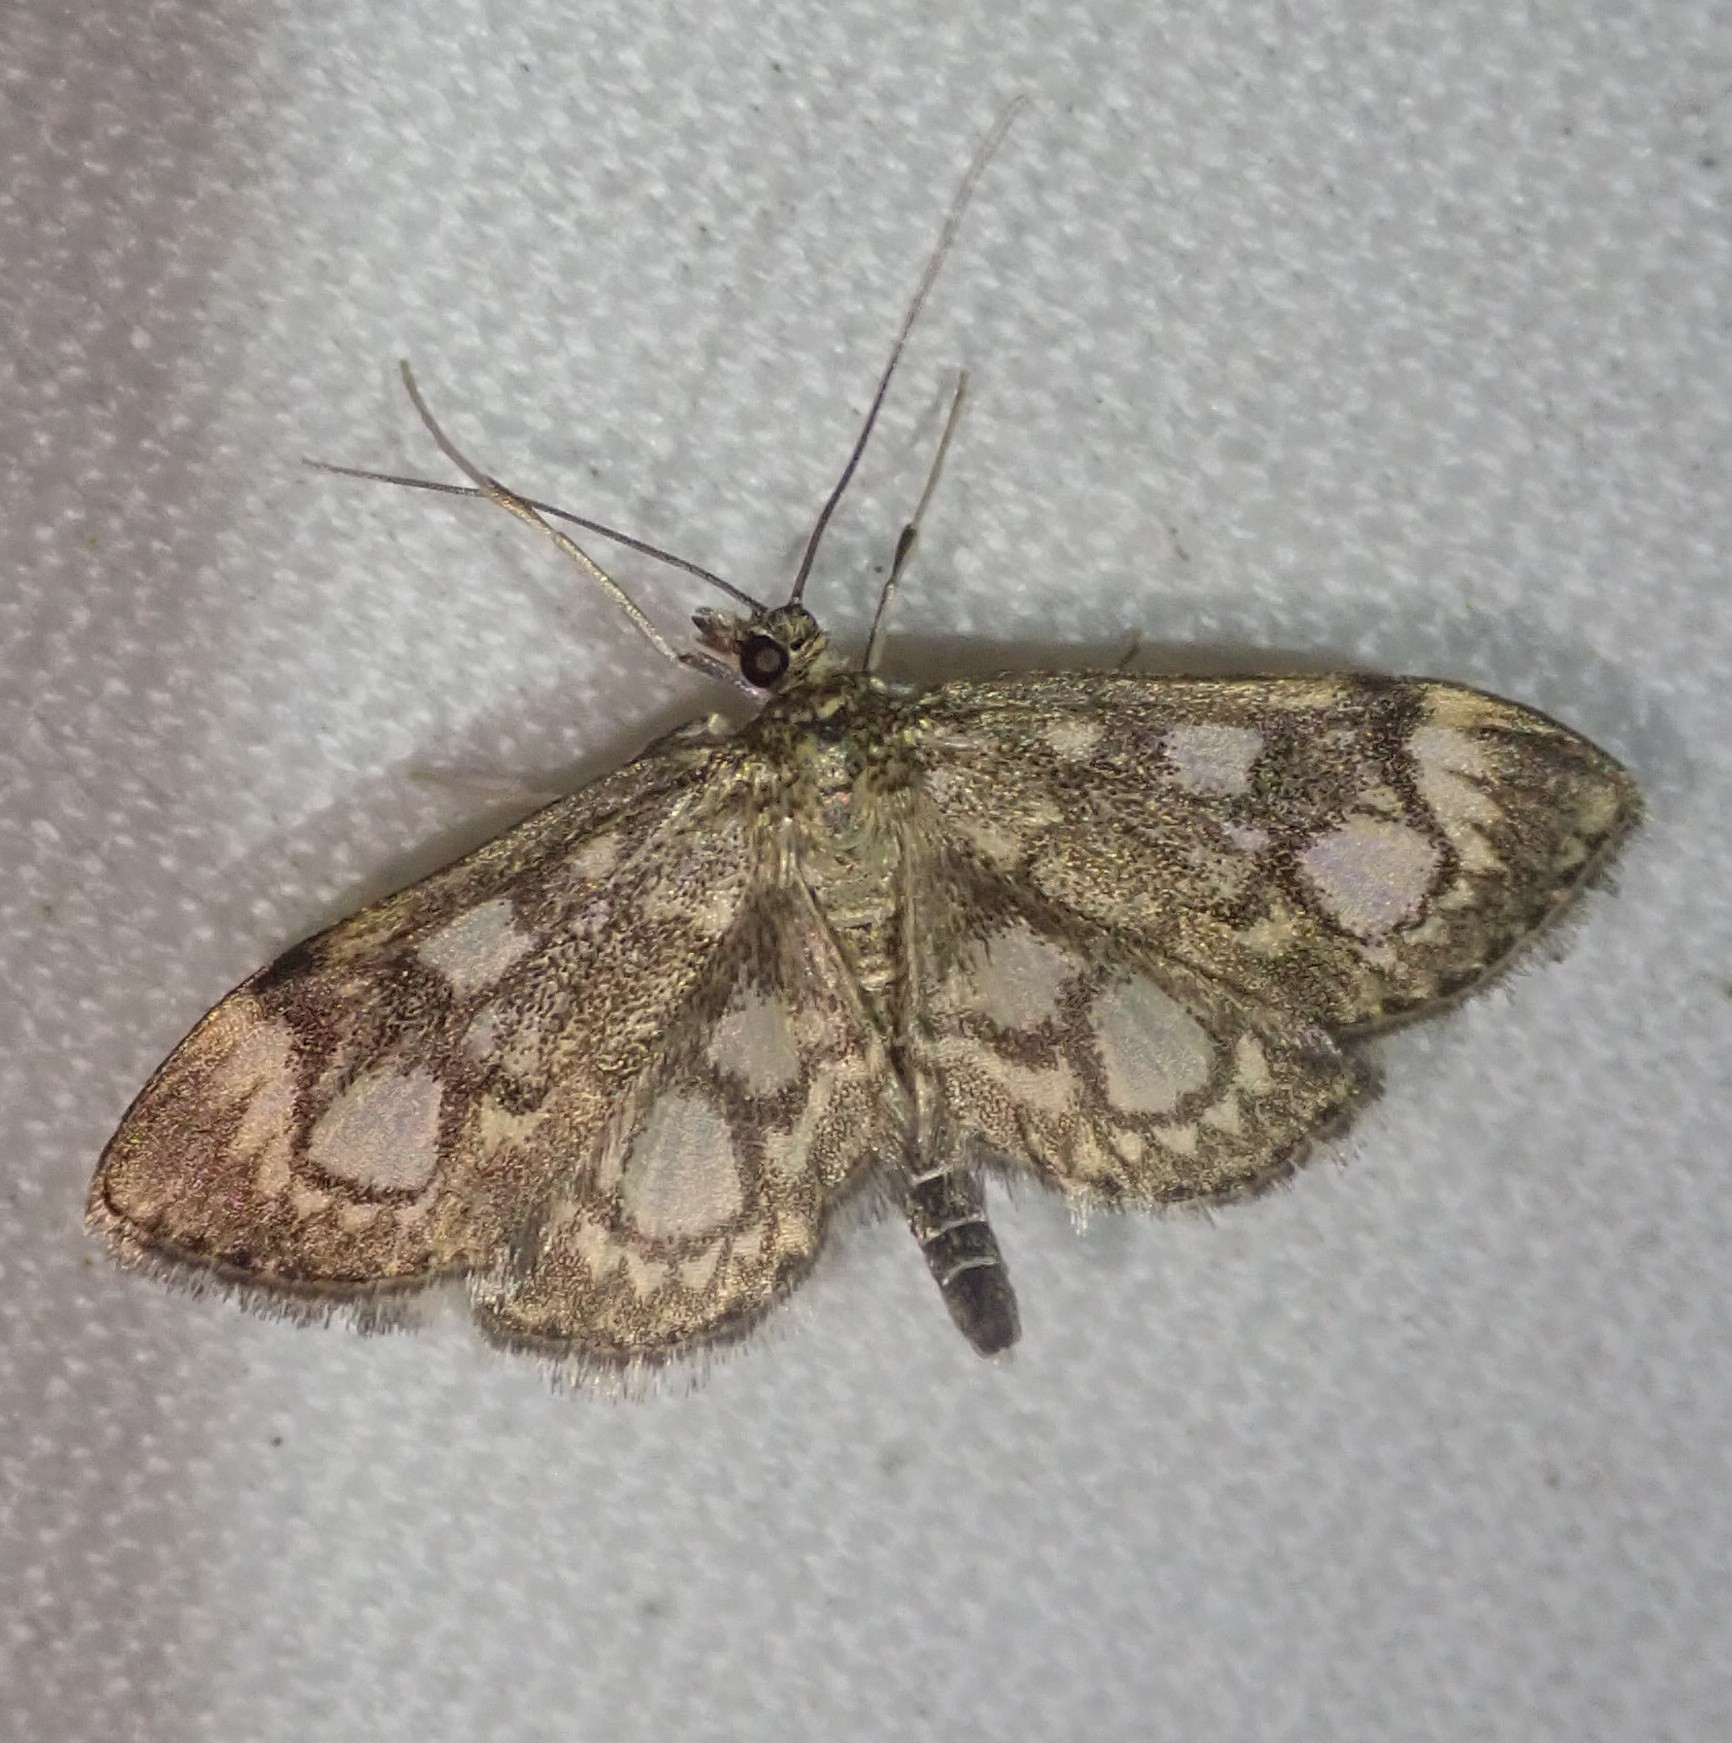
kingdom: Animalia
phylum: Arthropoda
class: Insecta
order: Lepidoptera
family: Crambidae
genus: Anania
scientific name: Anania coronata
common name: Elder pearl
